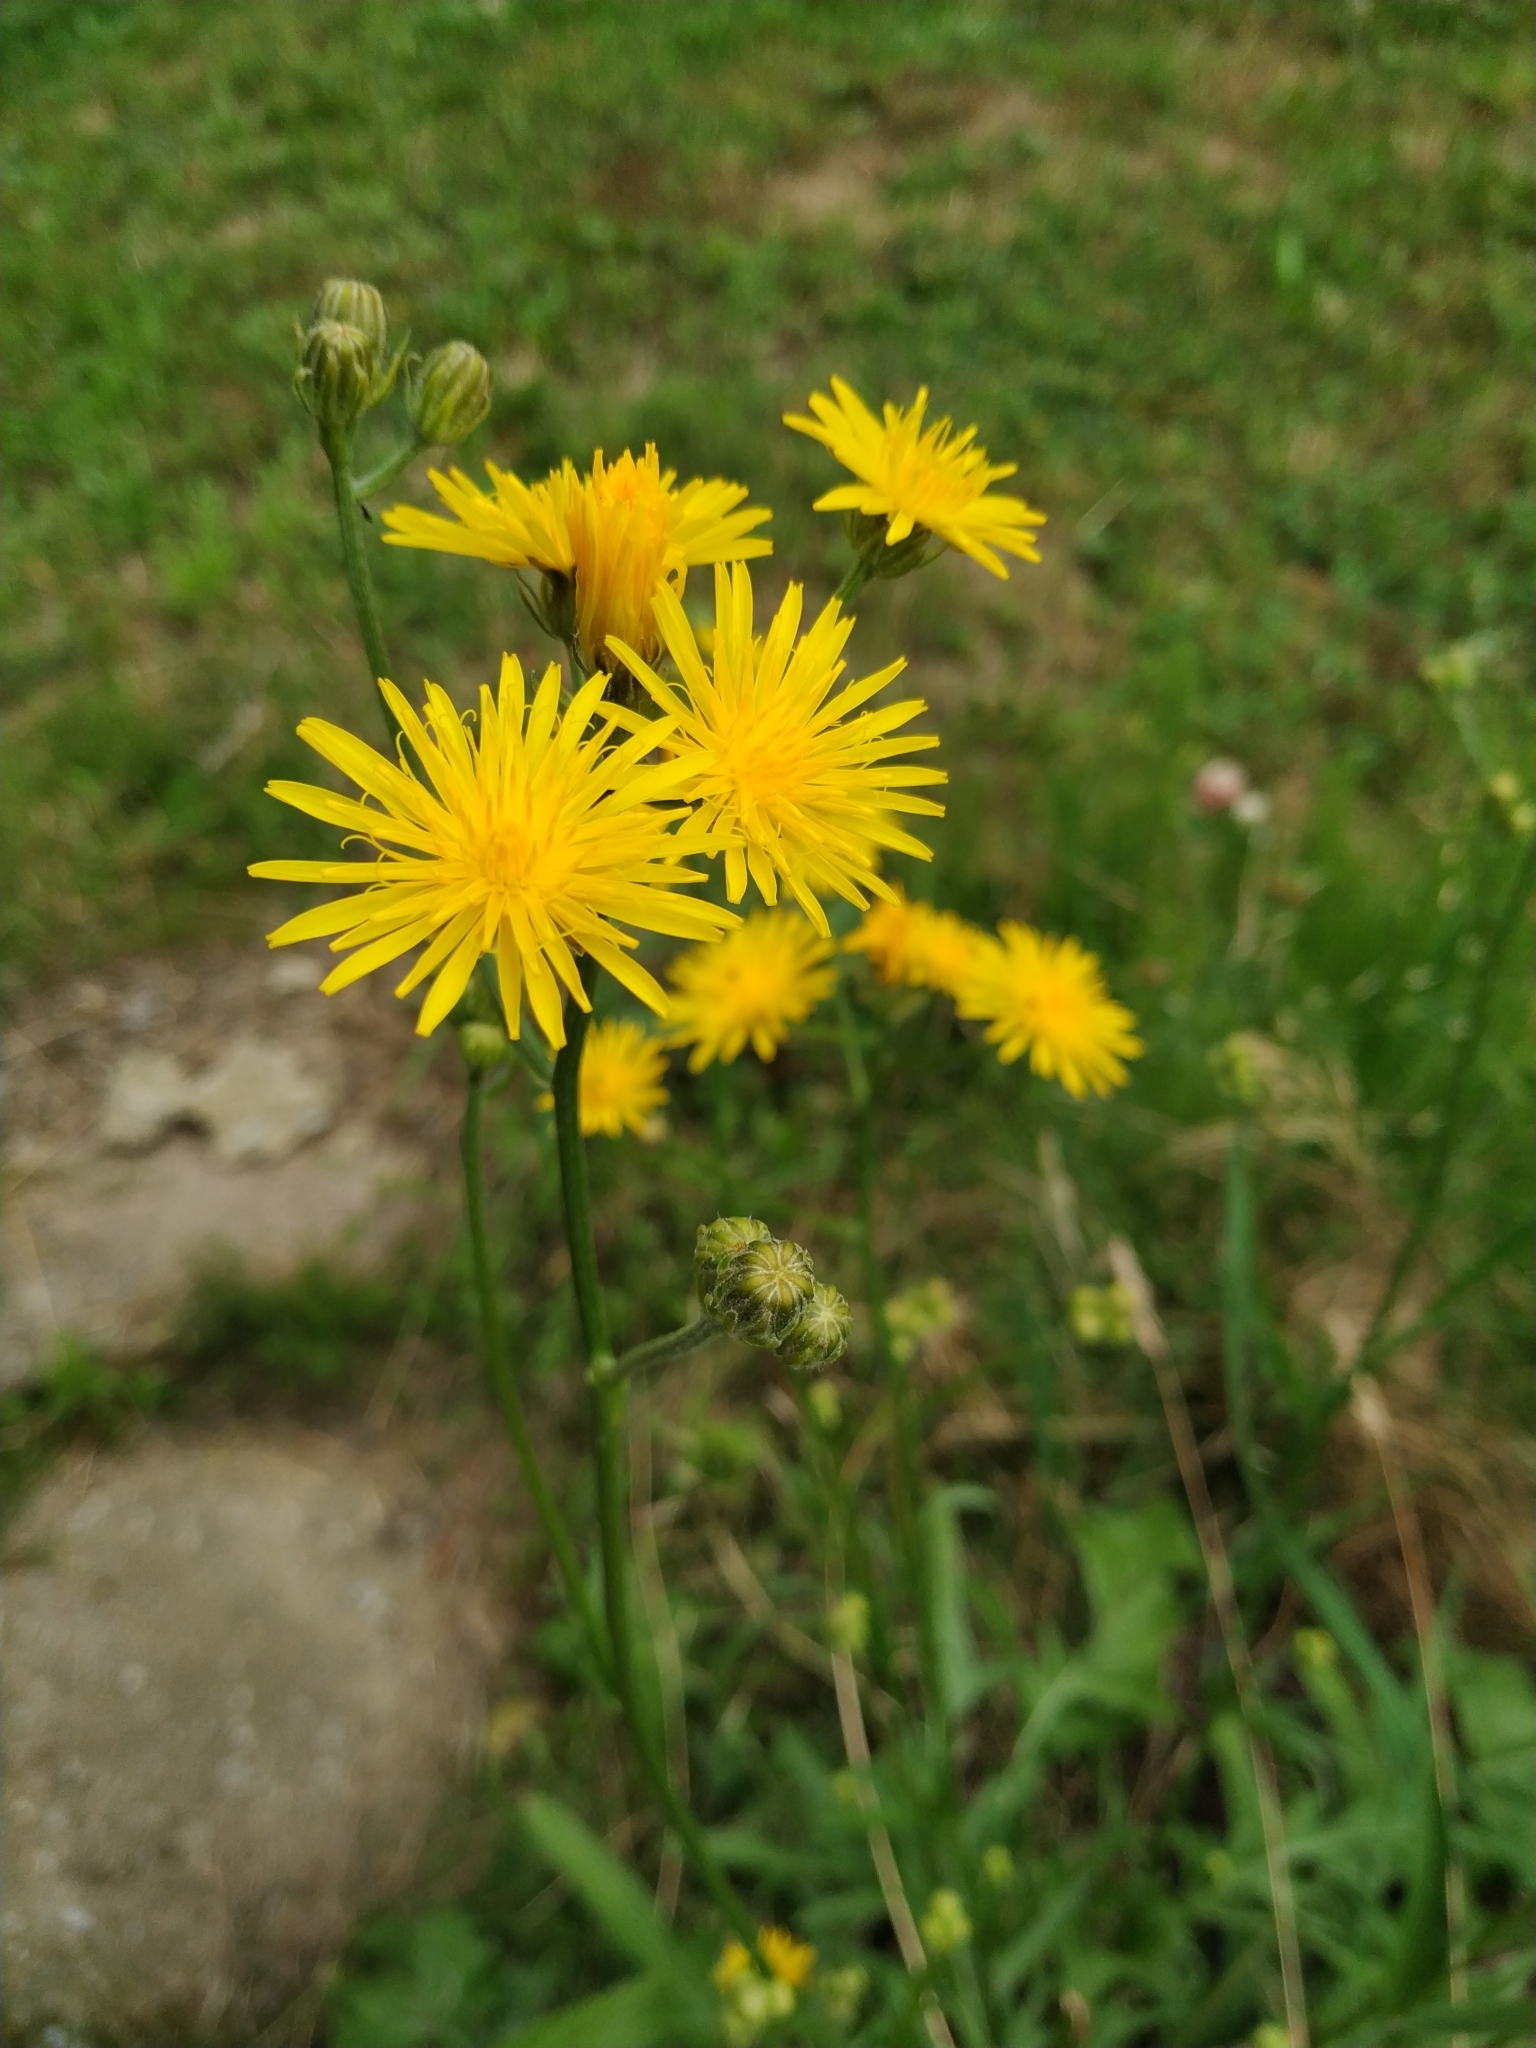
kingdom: Plantae
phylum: Tracheophyta
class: Magnoliopsida
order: Asterales
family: Asteraceae
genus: Crepis
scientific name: Crepis biennis
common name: Rough hawk's-beard
